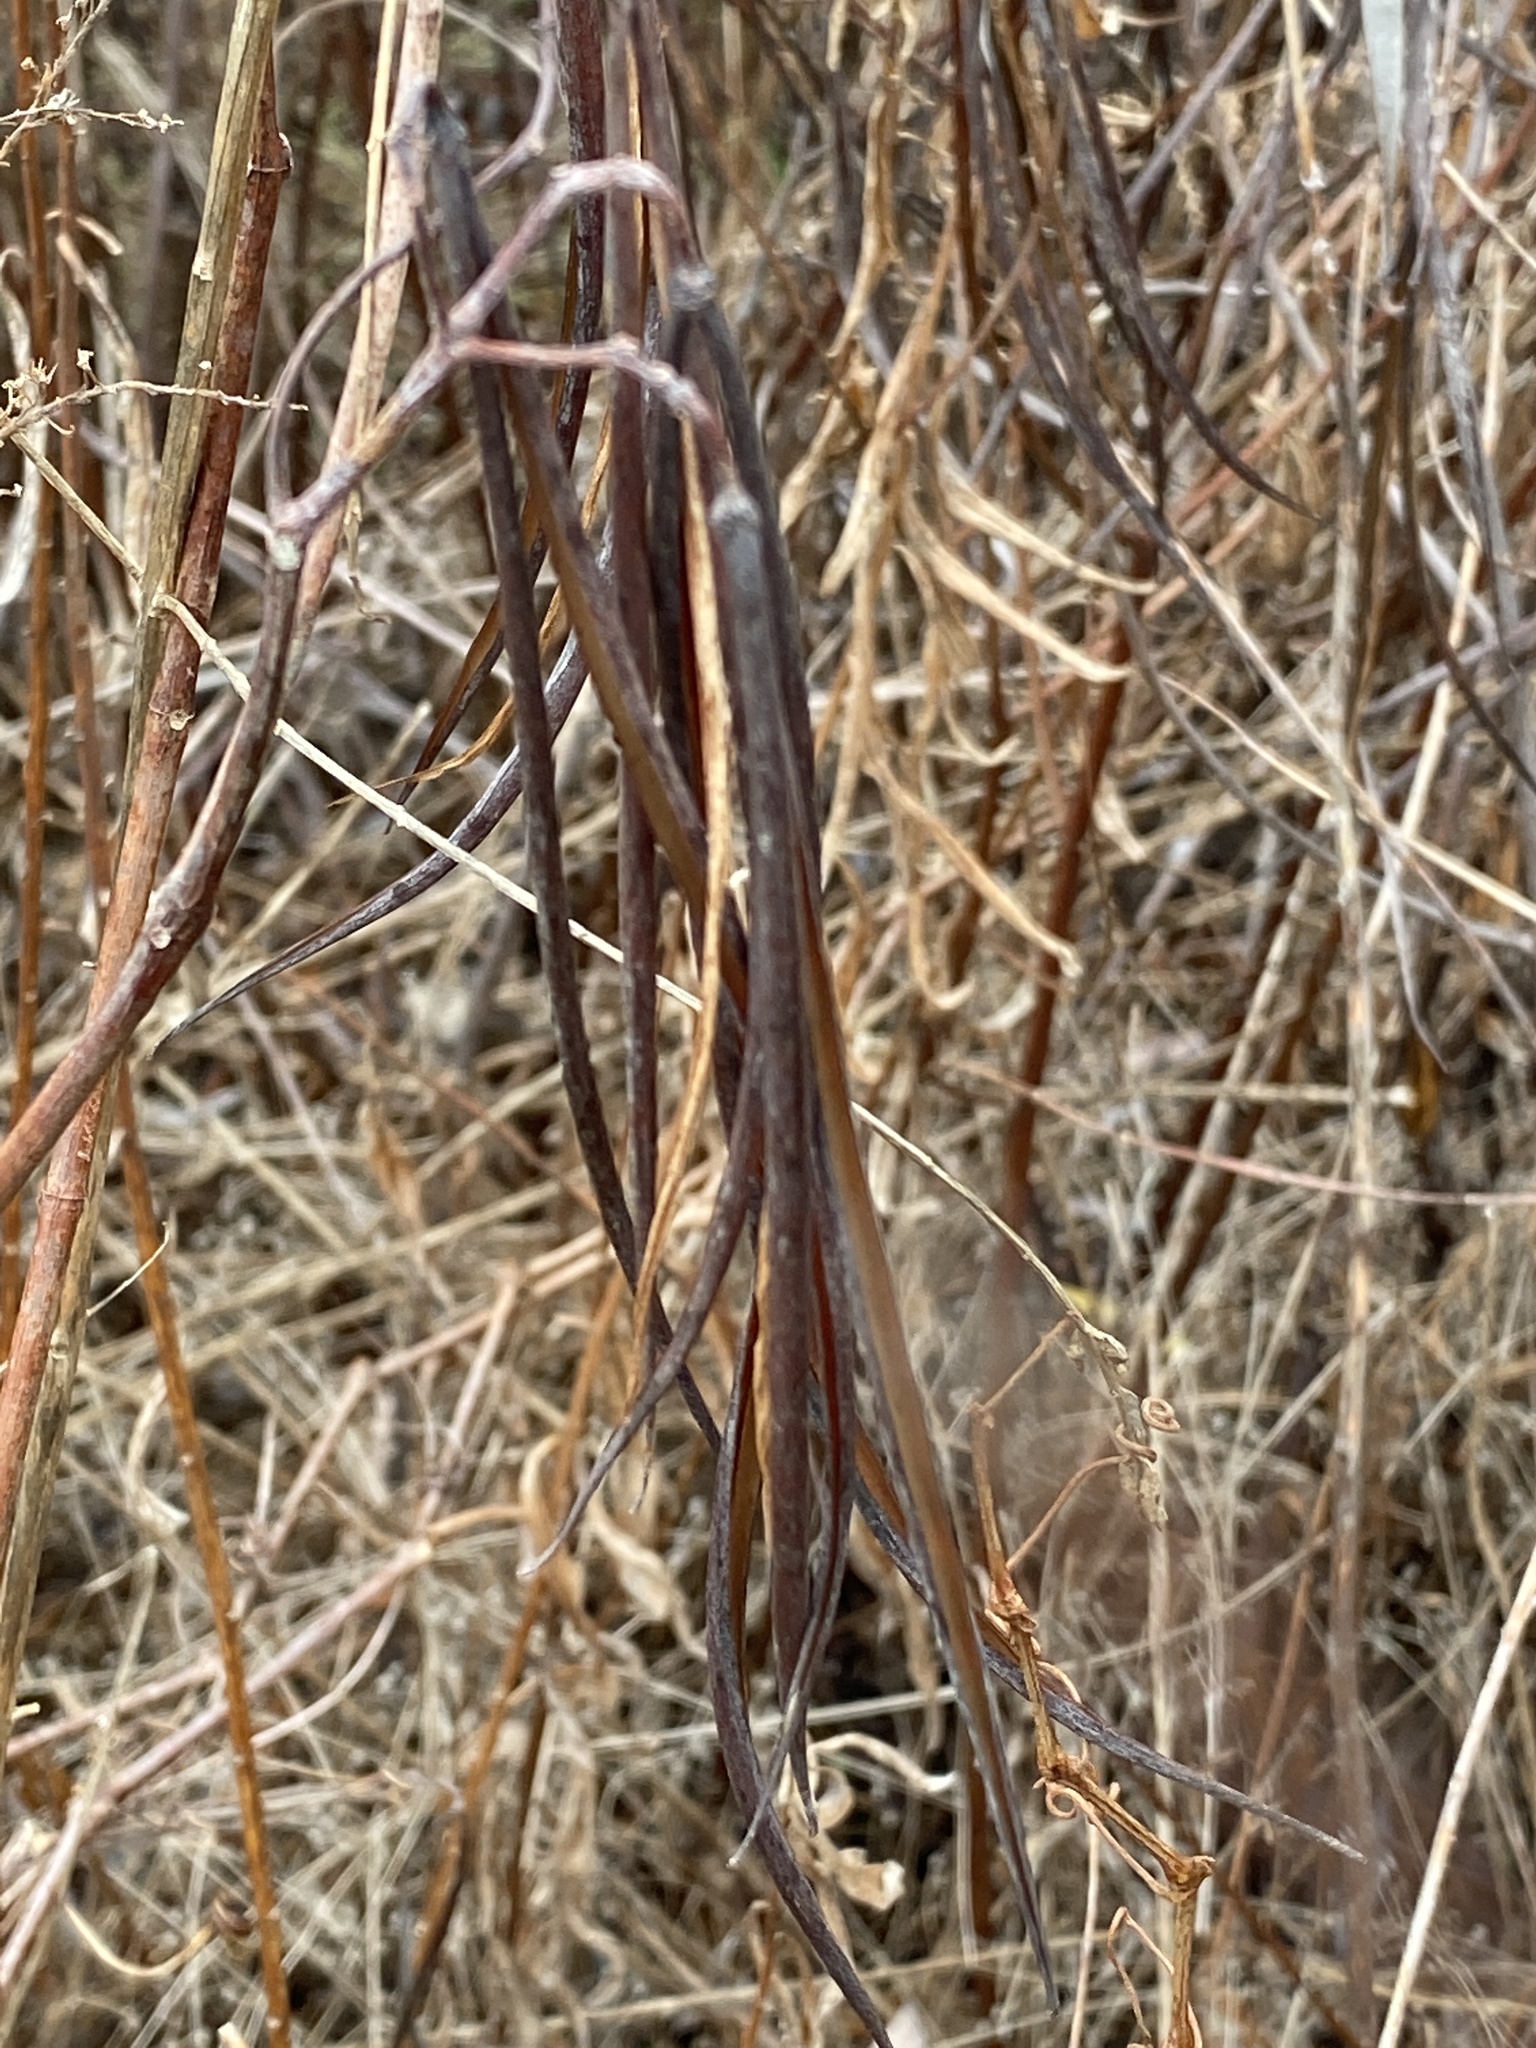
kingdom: Plantae
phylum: Tracheophyta
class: Magnoliopsida
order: Gentianales
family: Apocynaceae
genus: Apocynum
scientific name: Apocynum cannabinum
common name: Hemp dogbane
